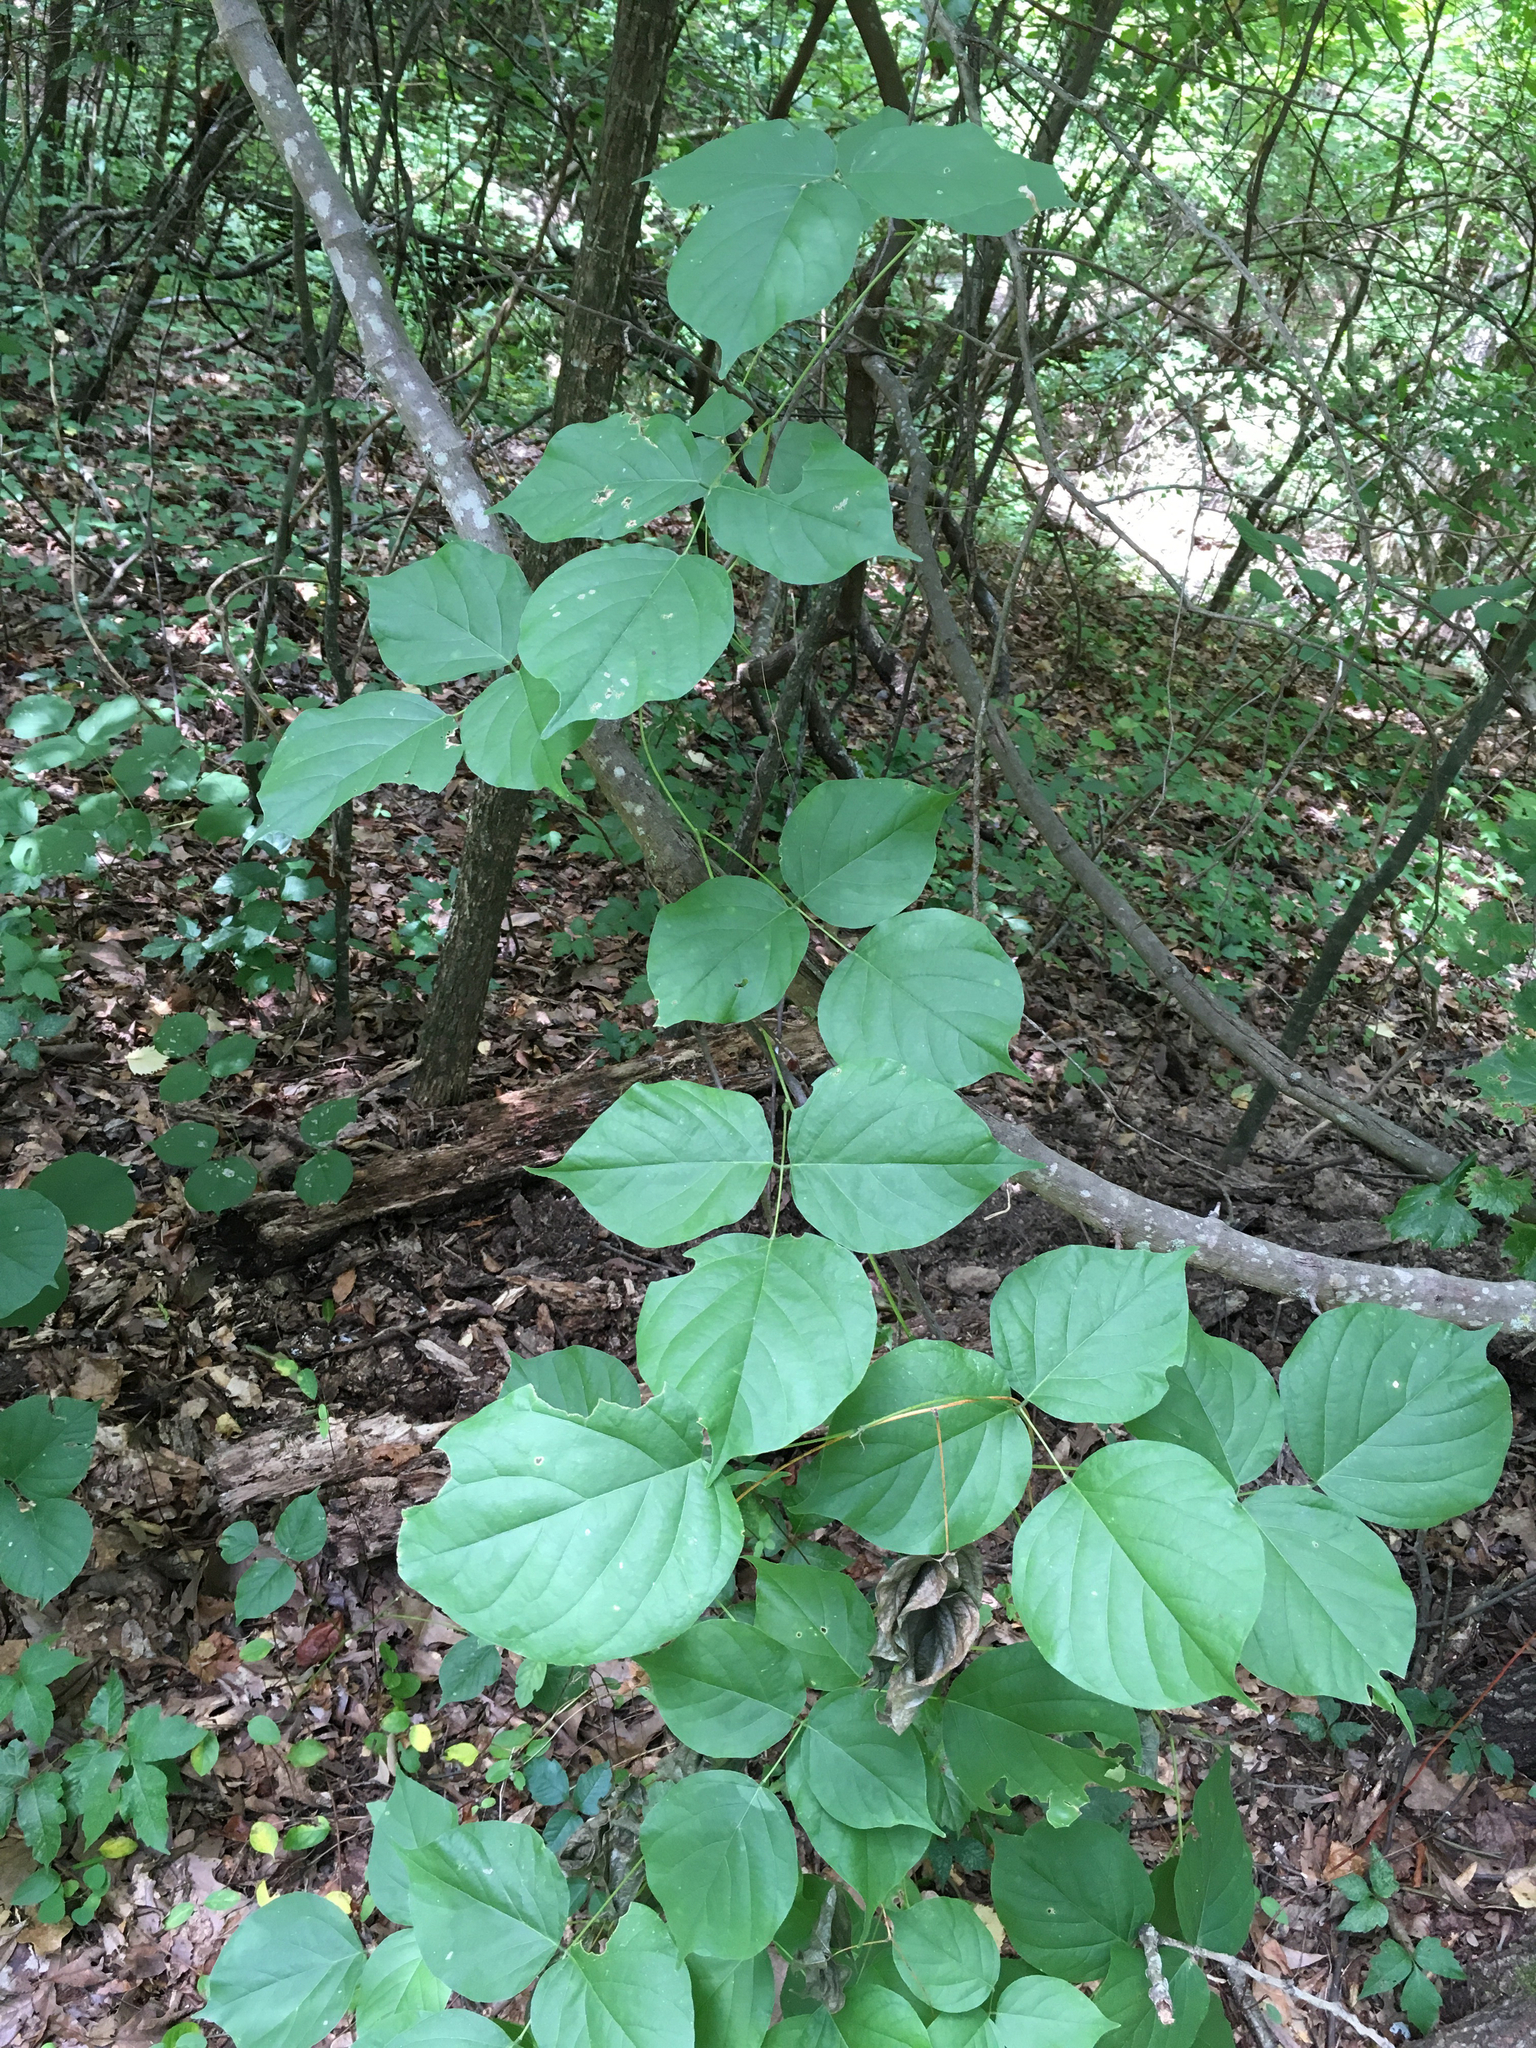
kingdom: Plantae
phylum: Tracheophyta
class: Magnoliopsida
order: Fabales
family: Fabaceae
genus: Lackeya
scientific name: Lackeya multiflora
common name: Boykin's clusterpea
